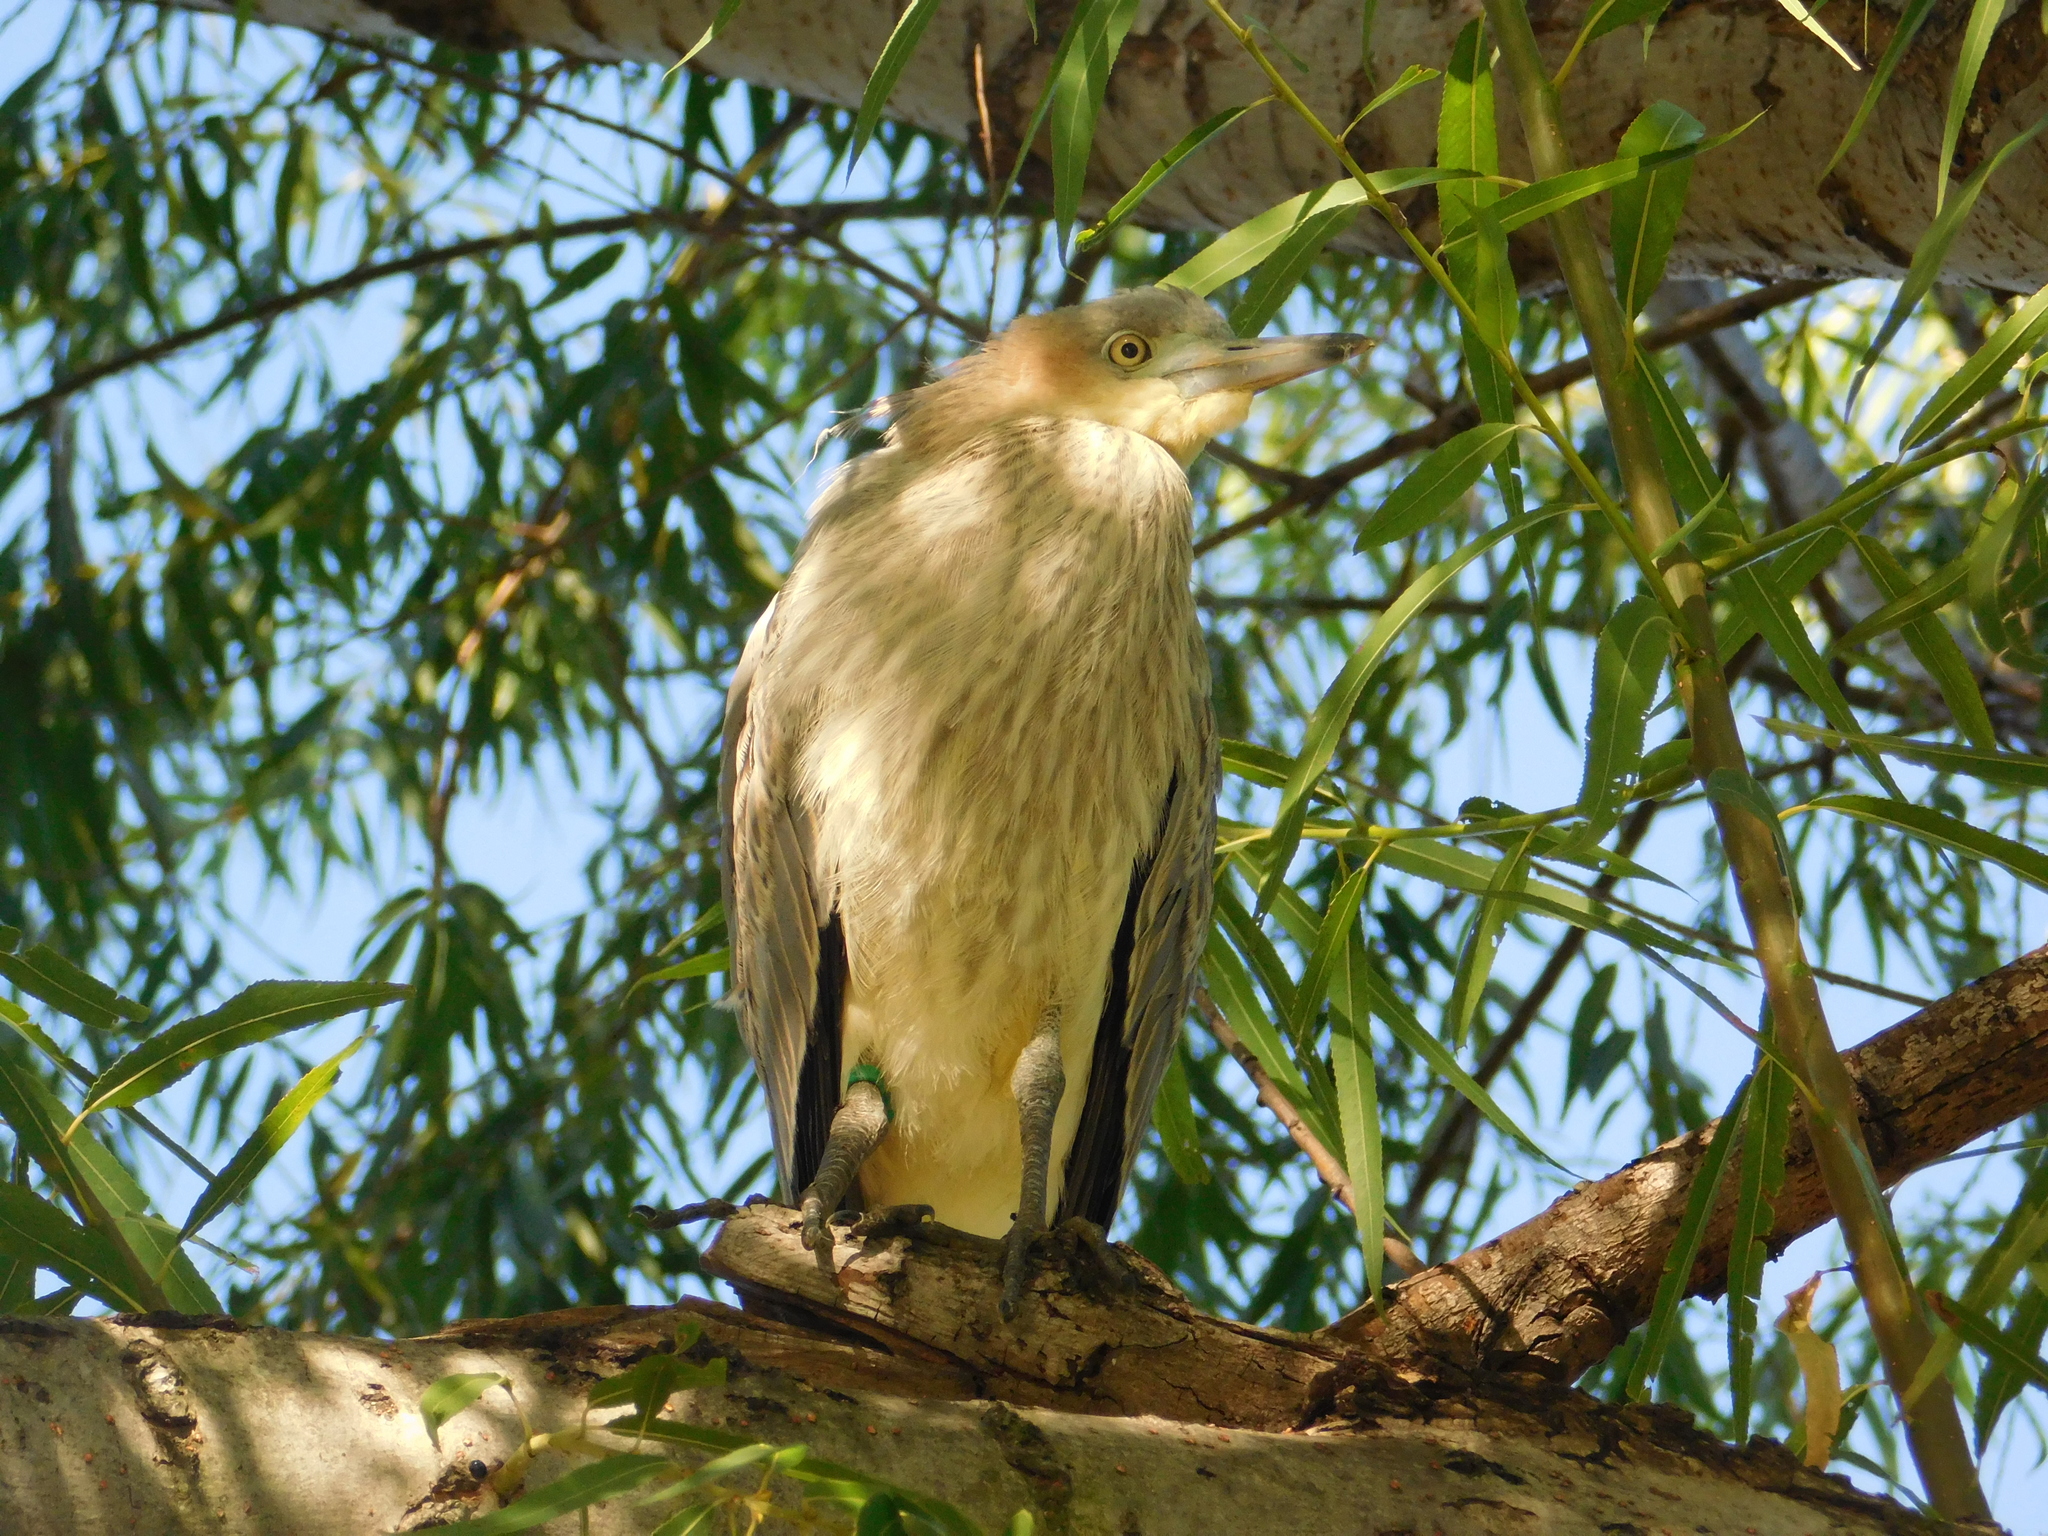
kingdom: Animalia
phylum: Chordata
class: Aves
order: Pelecaniformes
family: Ardeidae
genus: Syrigma
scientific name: Syrigma sibilatrix
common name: Whistling heron
